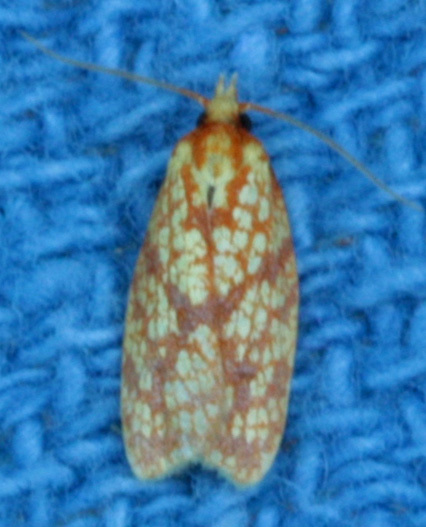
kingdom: Animalia
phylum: Arthropoda
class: Insecta
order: Lepidoptera
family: Tortricidae
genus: Sparganothis
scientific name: Sparganothis sulfureana
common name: Sparganothis fruitworm moth
